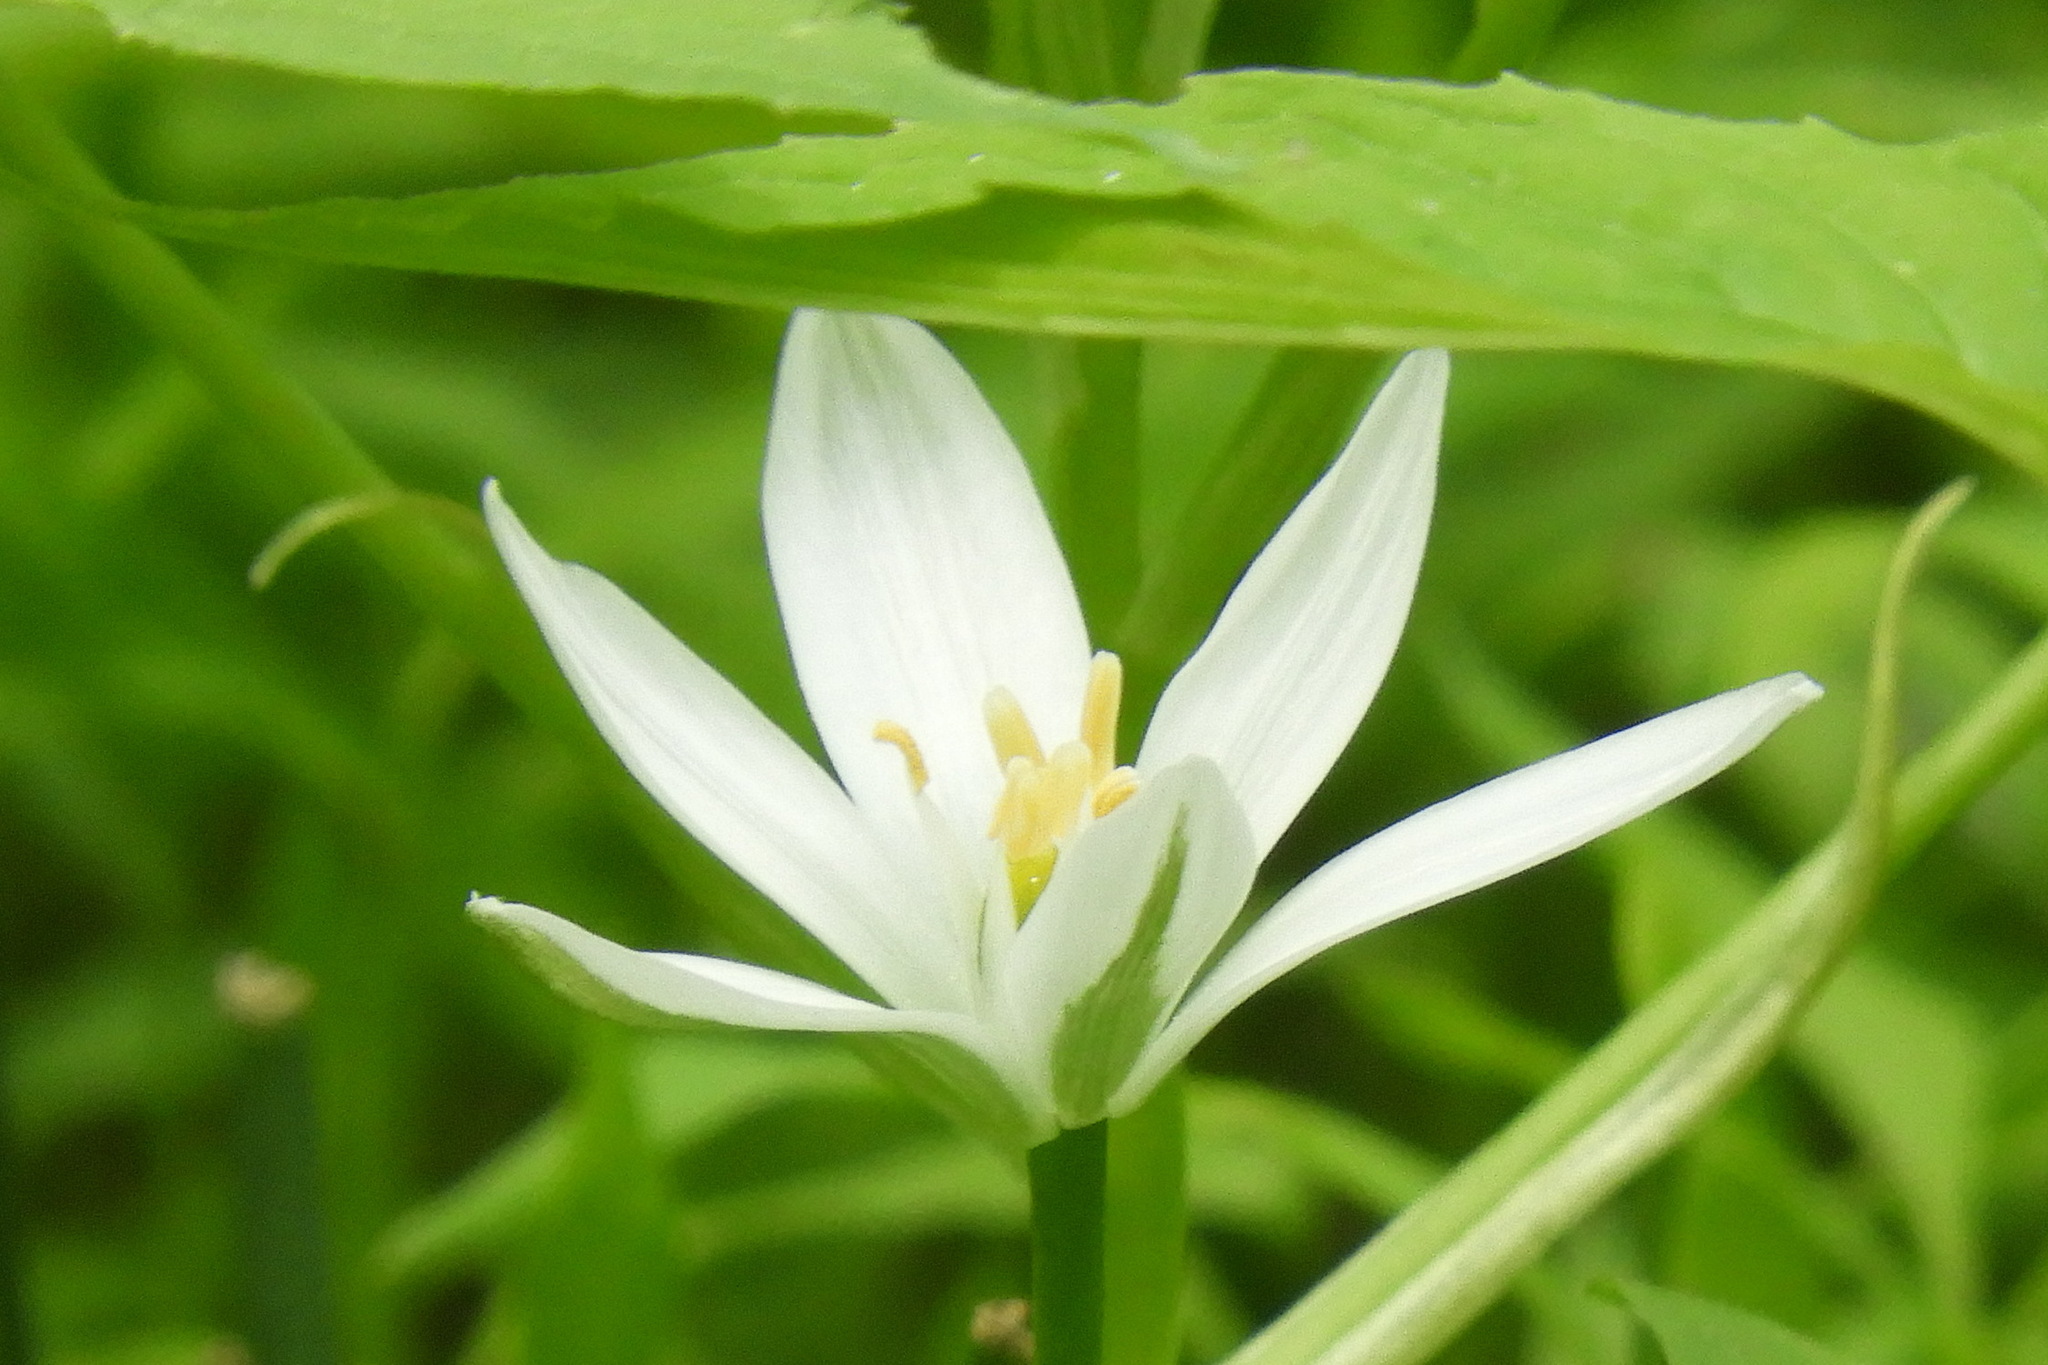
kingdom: Plantae
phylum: Tracheophyta
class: Liliopsida
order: Asparagales
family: Asparagaceae
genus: Ornithogalum
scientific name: Ornithogalum umbellatum
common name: Garden star-of-bethlehem
